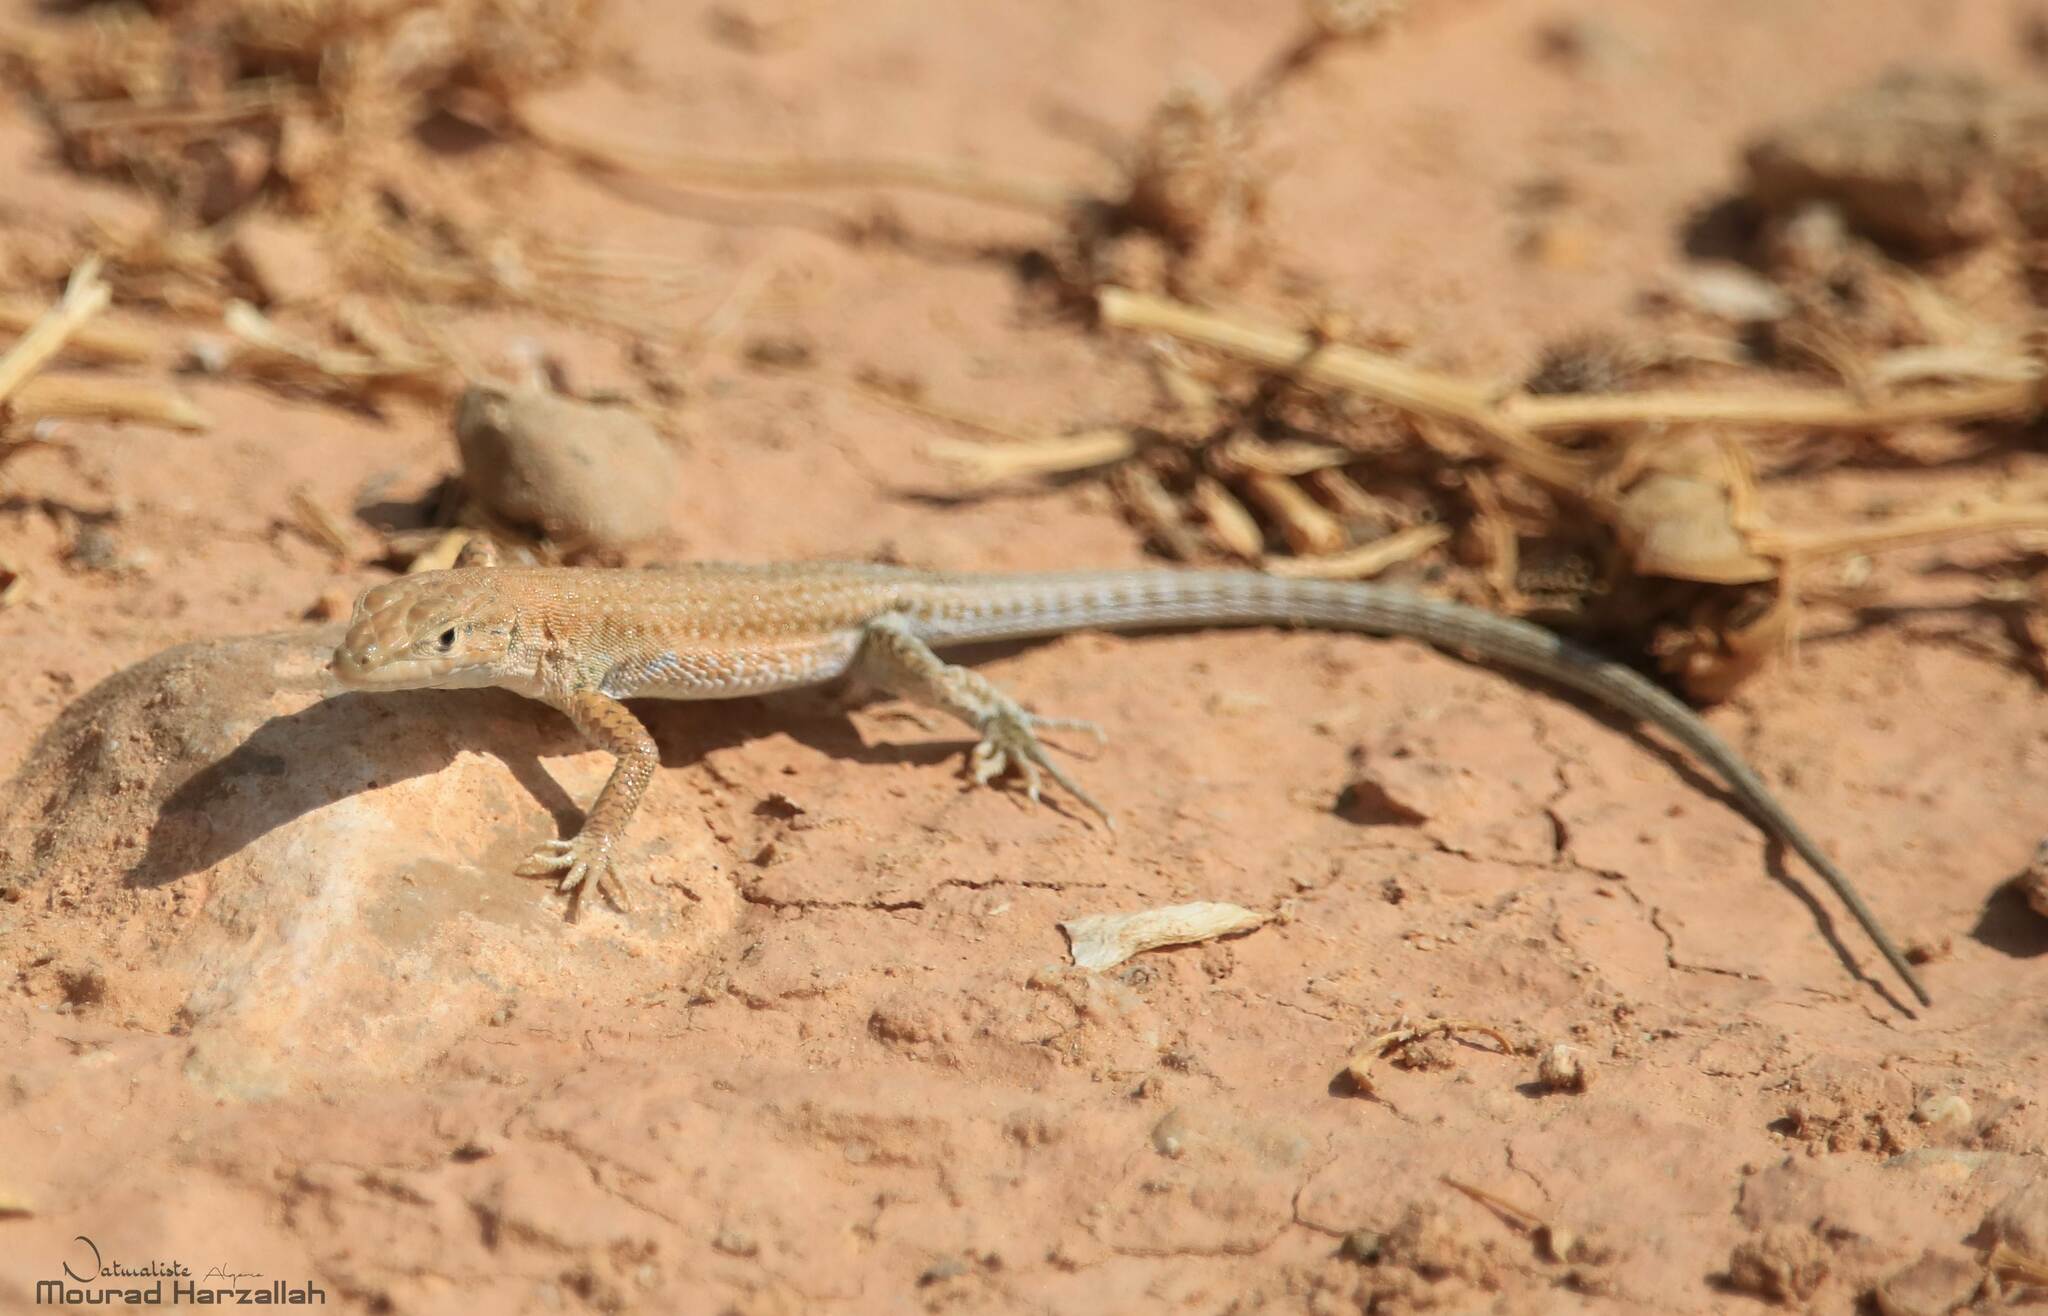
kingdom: Animalia
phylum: Chordata
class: Squamata
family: Lacertidae
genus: Mesalina
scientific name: Mesalina guttulata
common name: Desert lacerta
